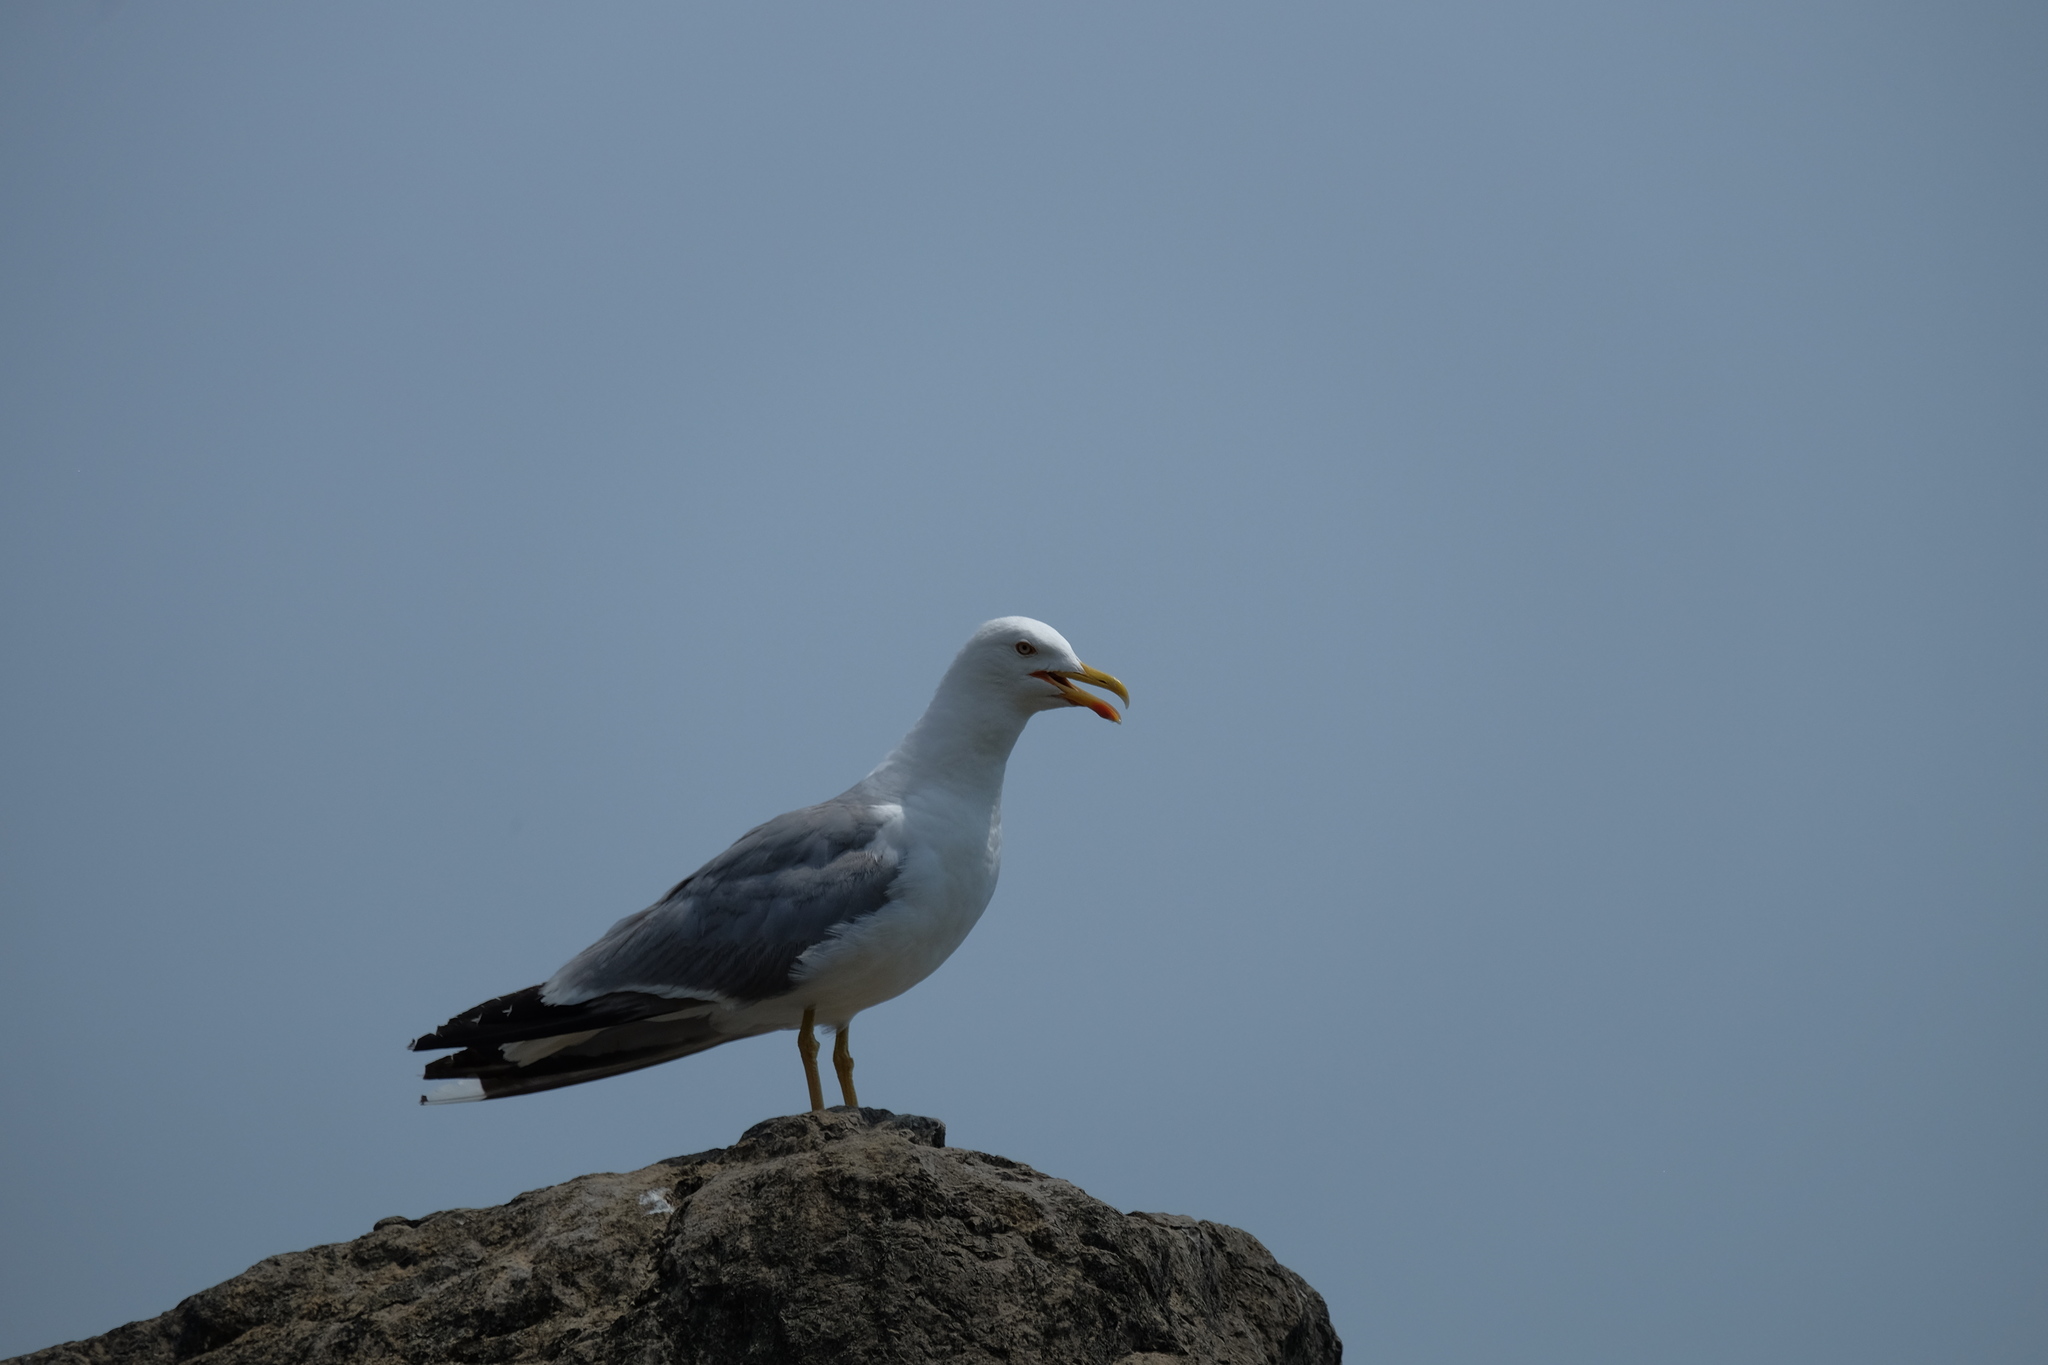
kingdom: Animalia
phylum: Chordata
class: Aves
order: Charadriiformes
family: Laridae
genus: Larus
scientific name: Larus michahellis
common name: Yellow-legged gull
